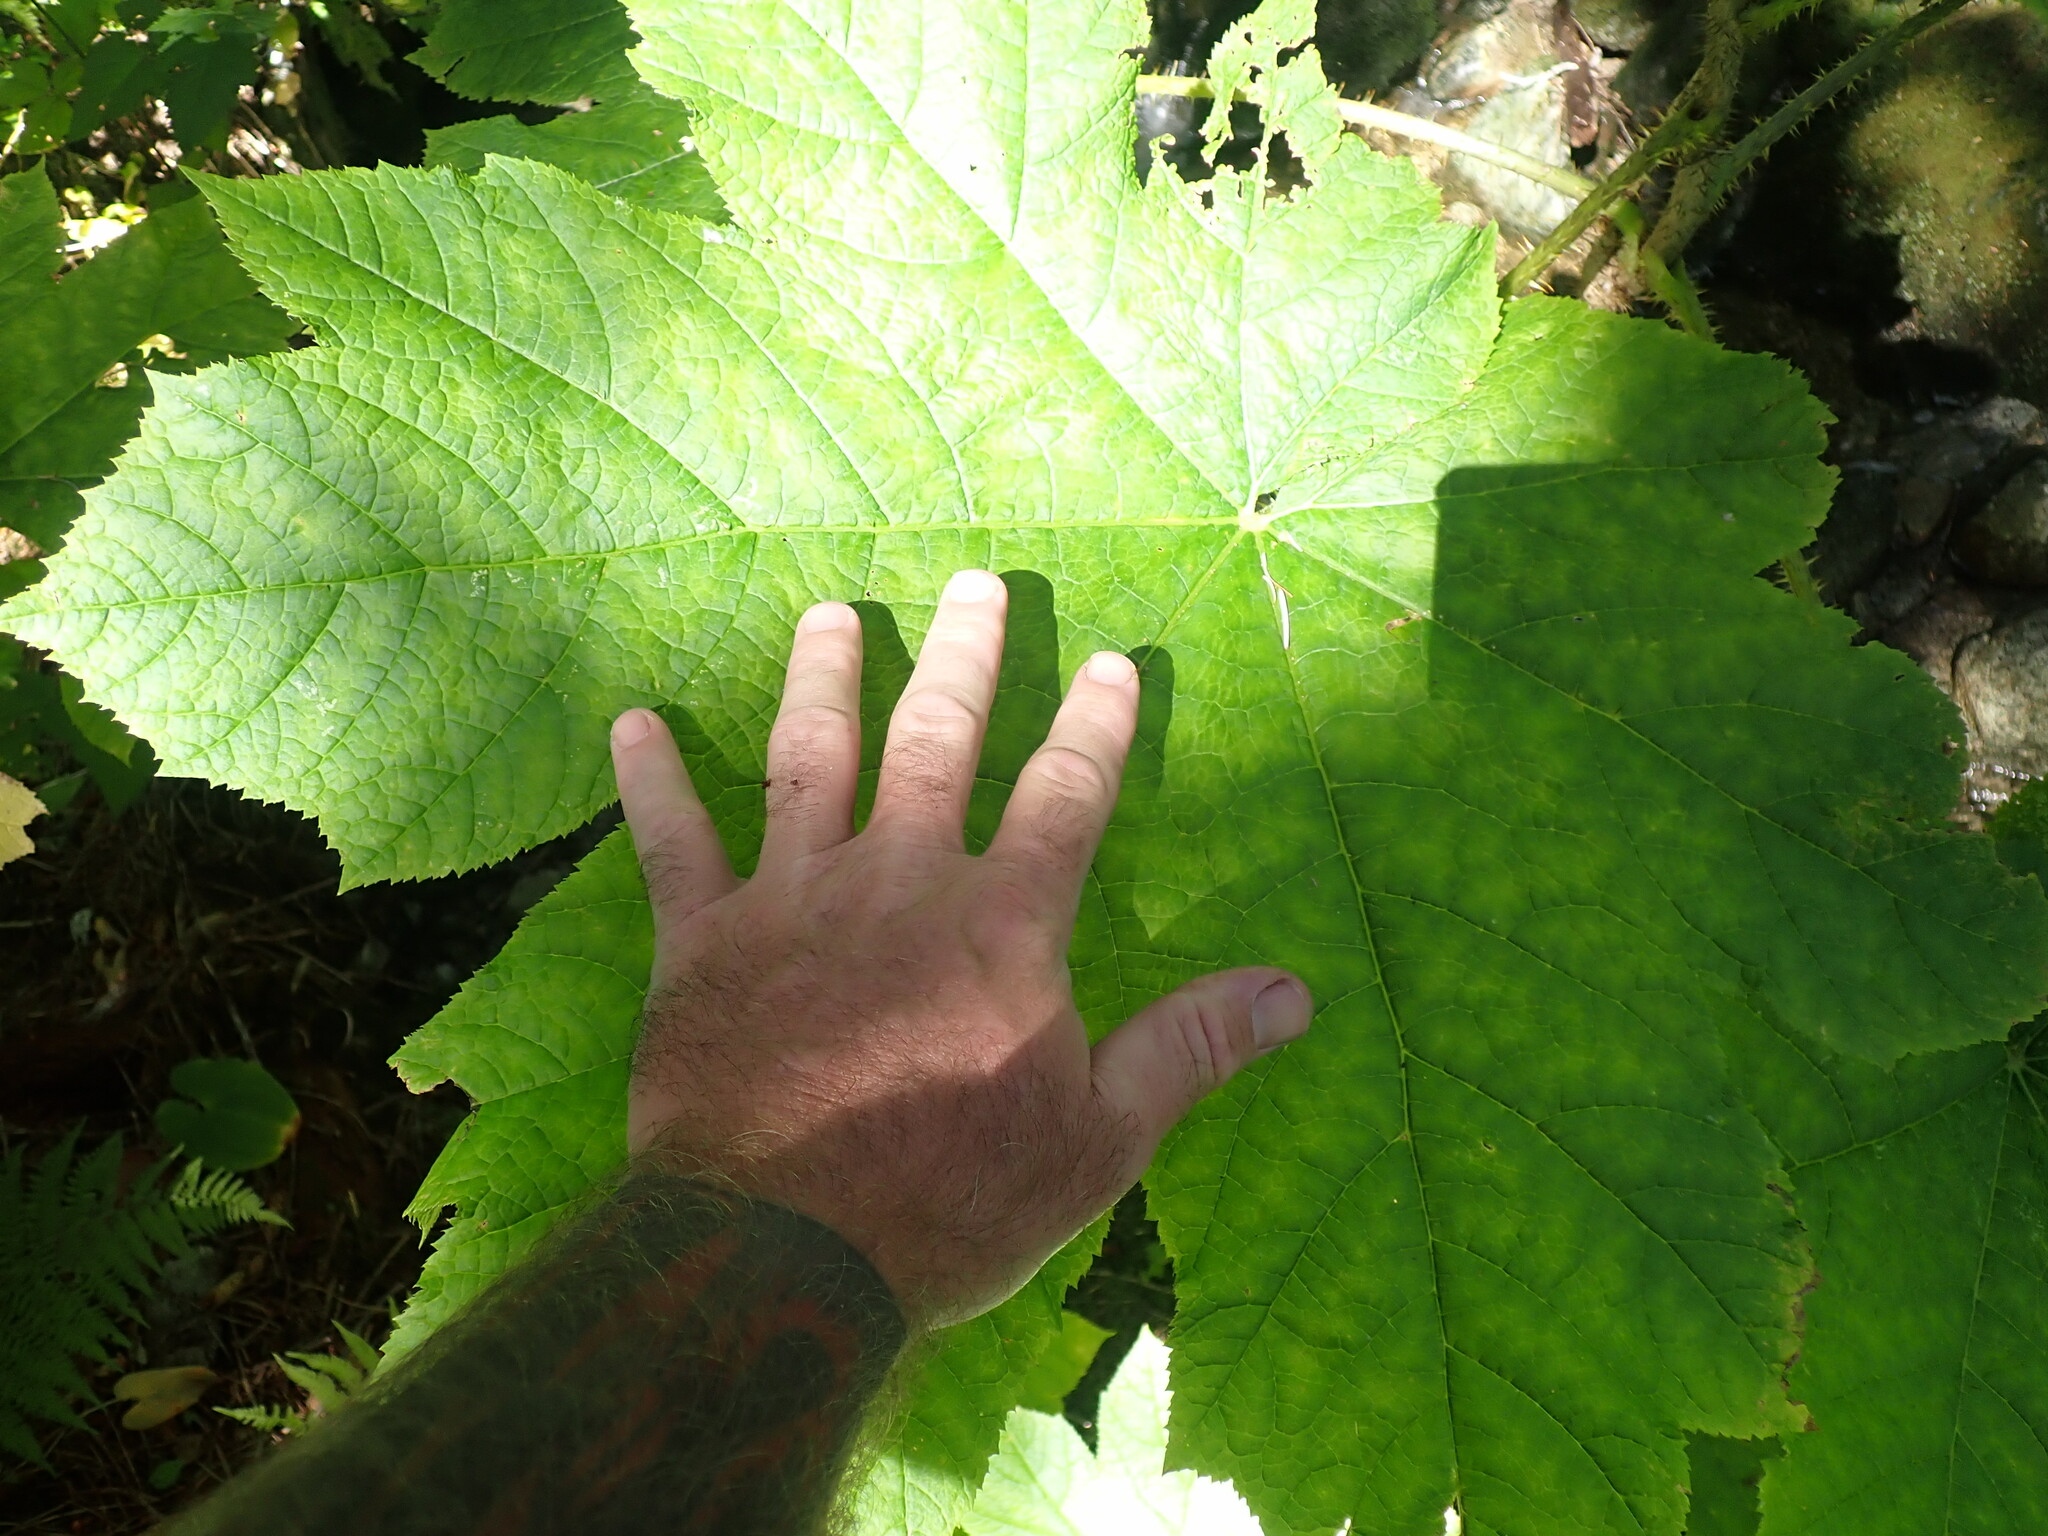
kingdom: Plantae
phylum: Tracheophyta
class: Magnoliopsida
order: Apiales
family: Araliaceae
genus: Oplopanax
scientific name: Oplopanax horridus
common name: Devil's walking-stick
